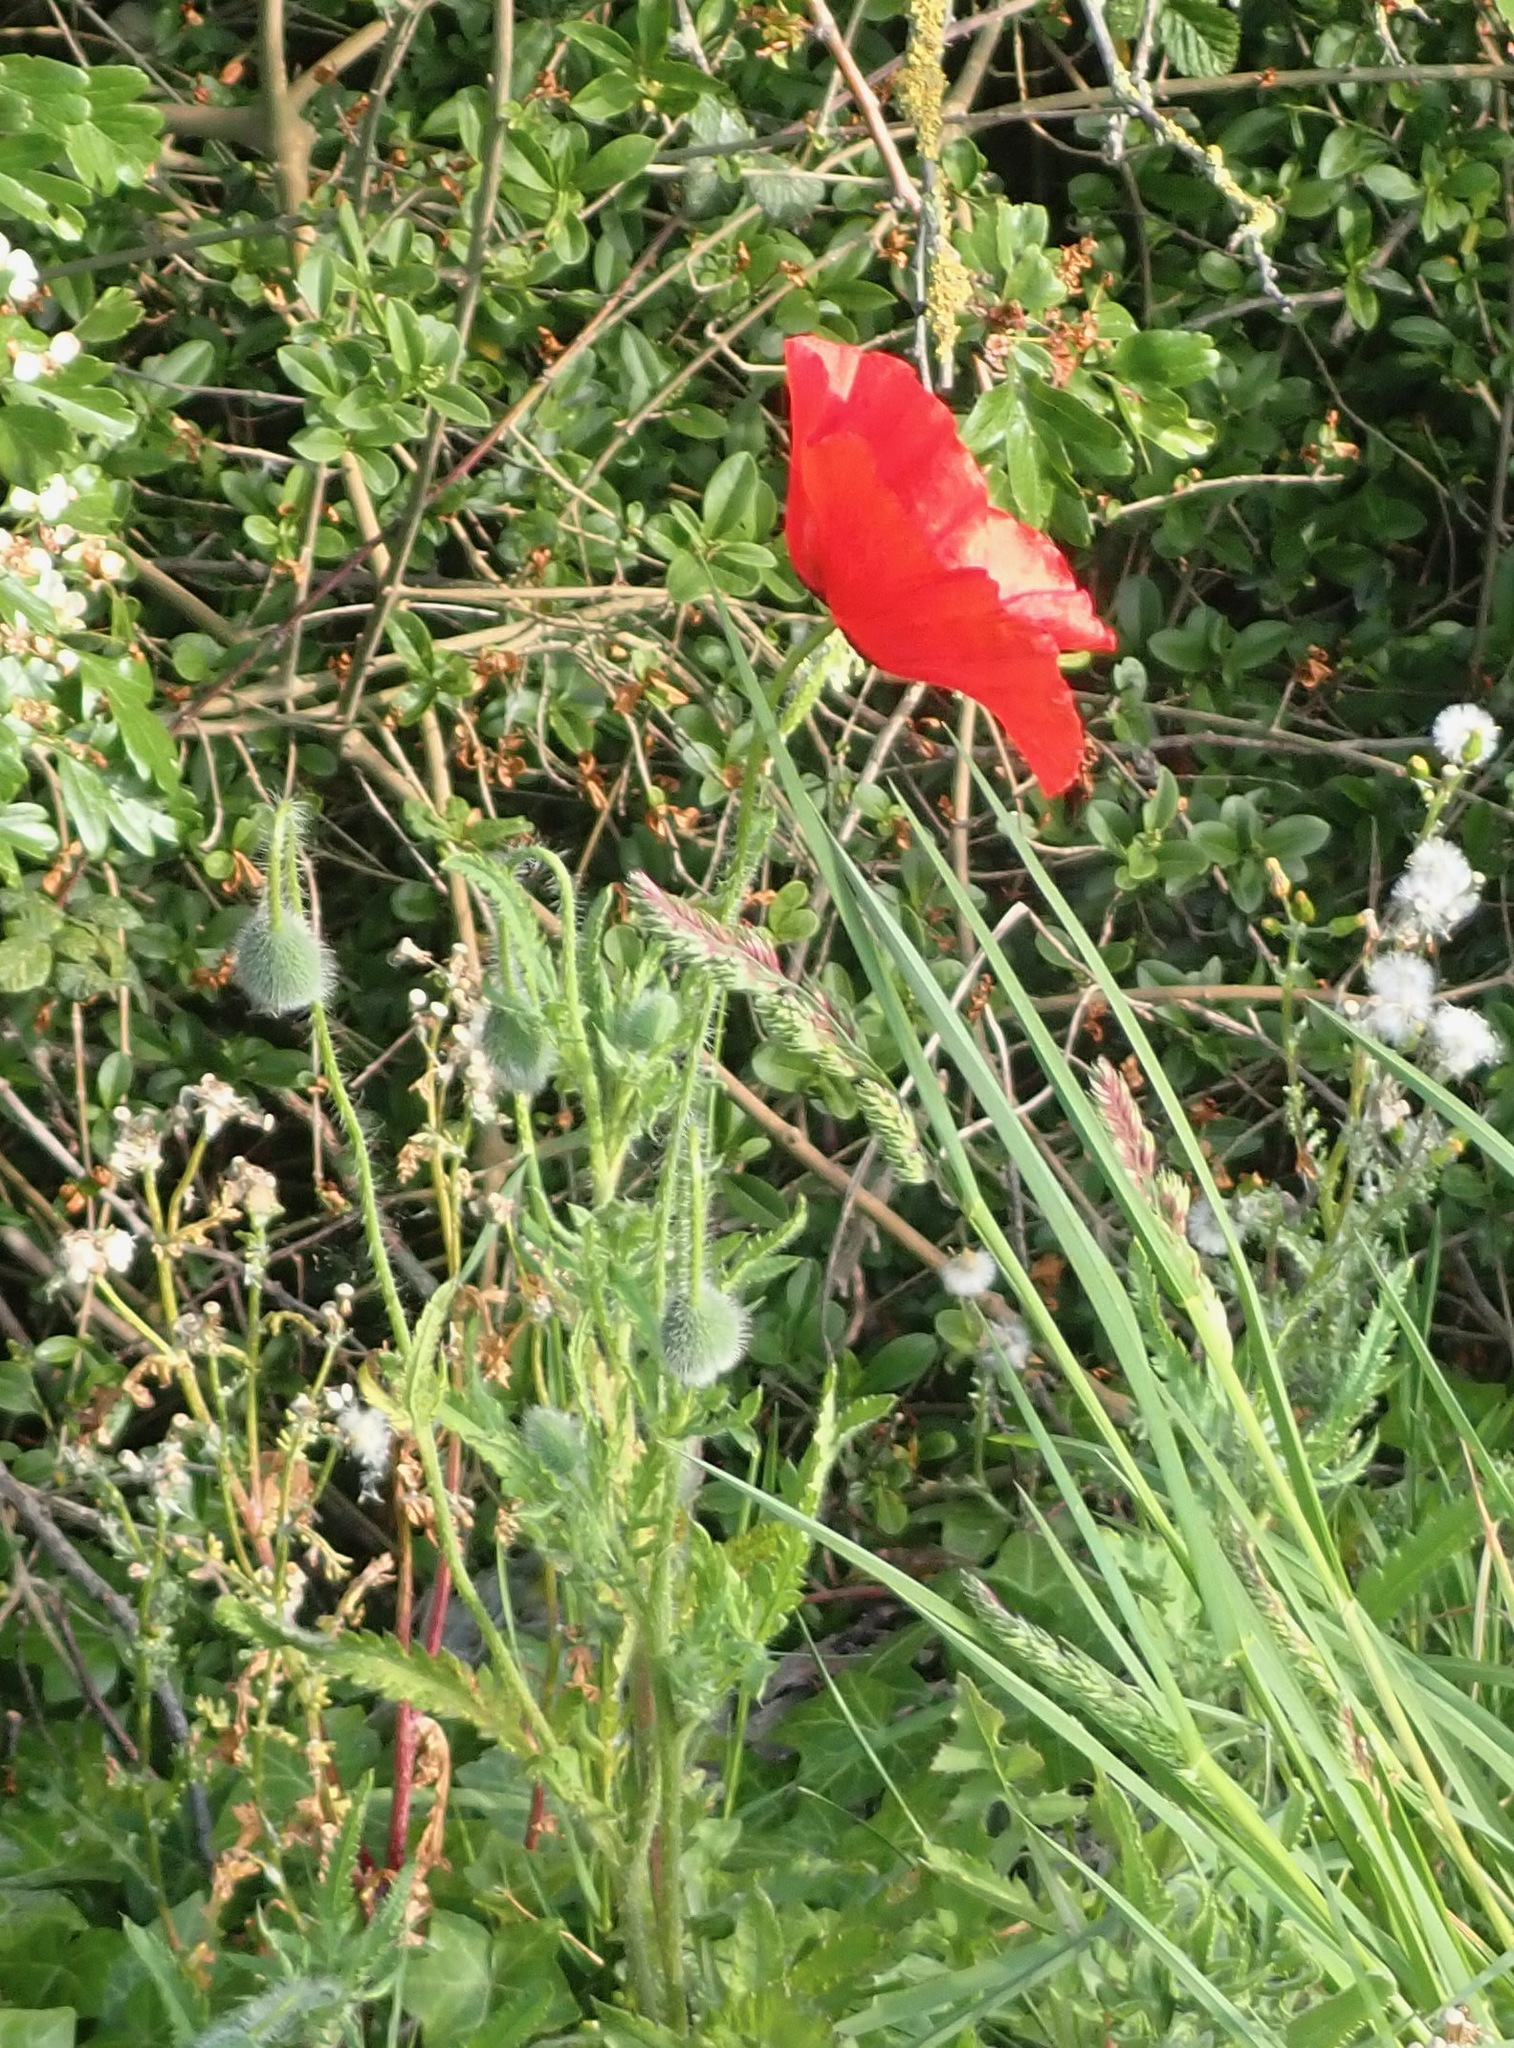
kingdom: Plantae
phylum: Tracheophyta
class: Magnoliopsida
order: Ranunculales
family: Papaveraceae
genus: Papaver
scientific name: Papaver rhoeas
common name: Corn poppy
